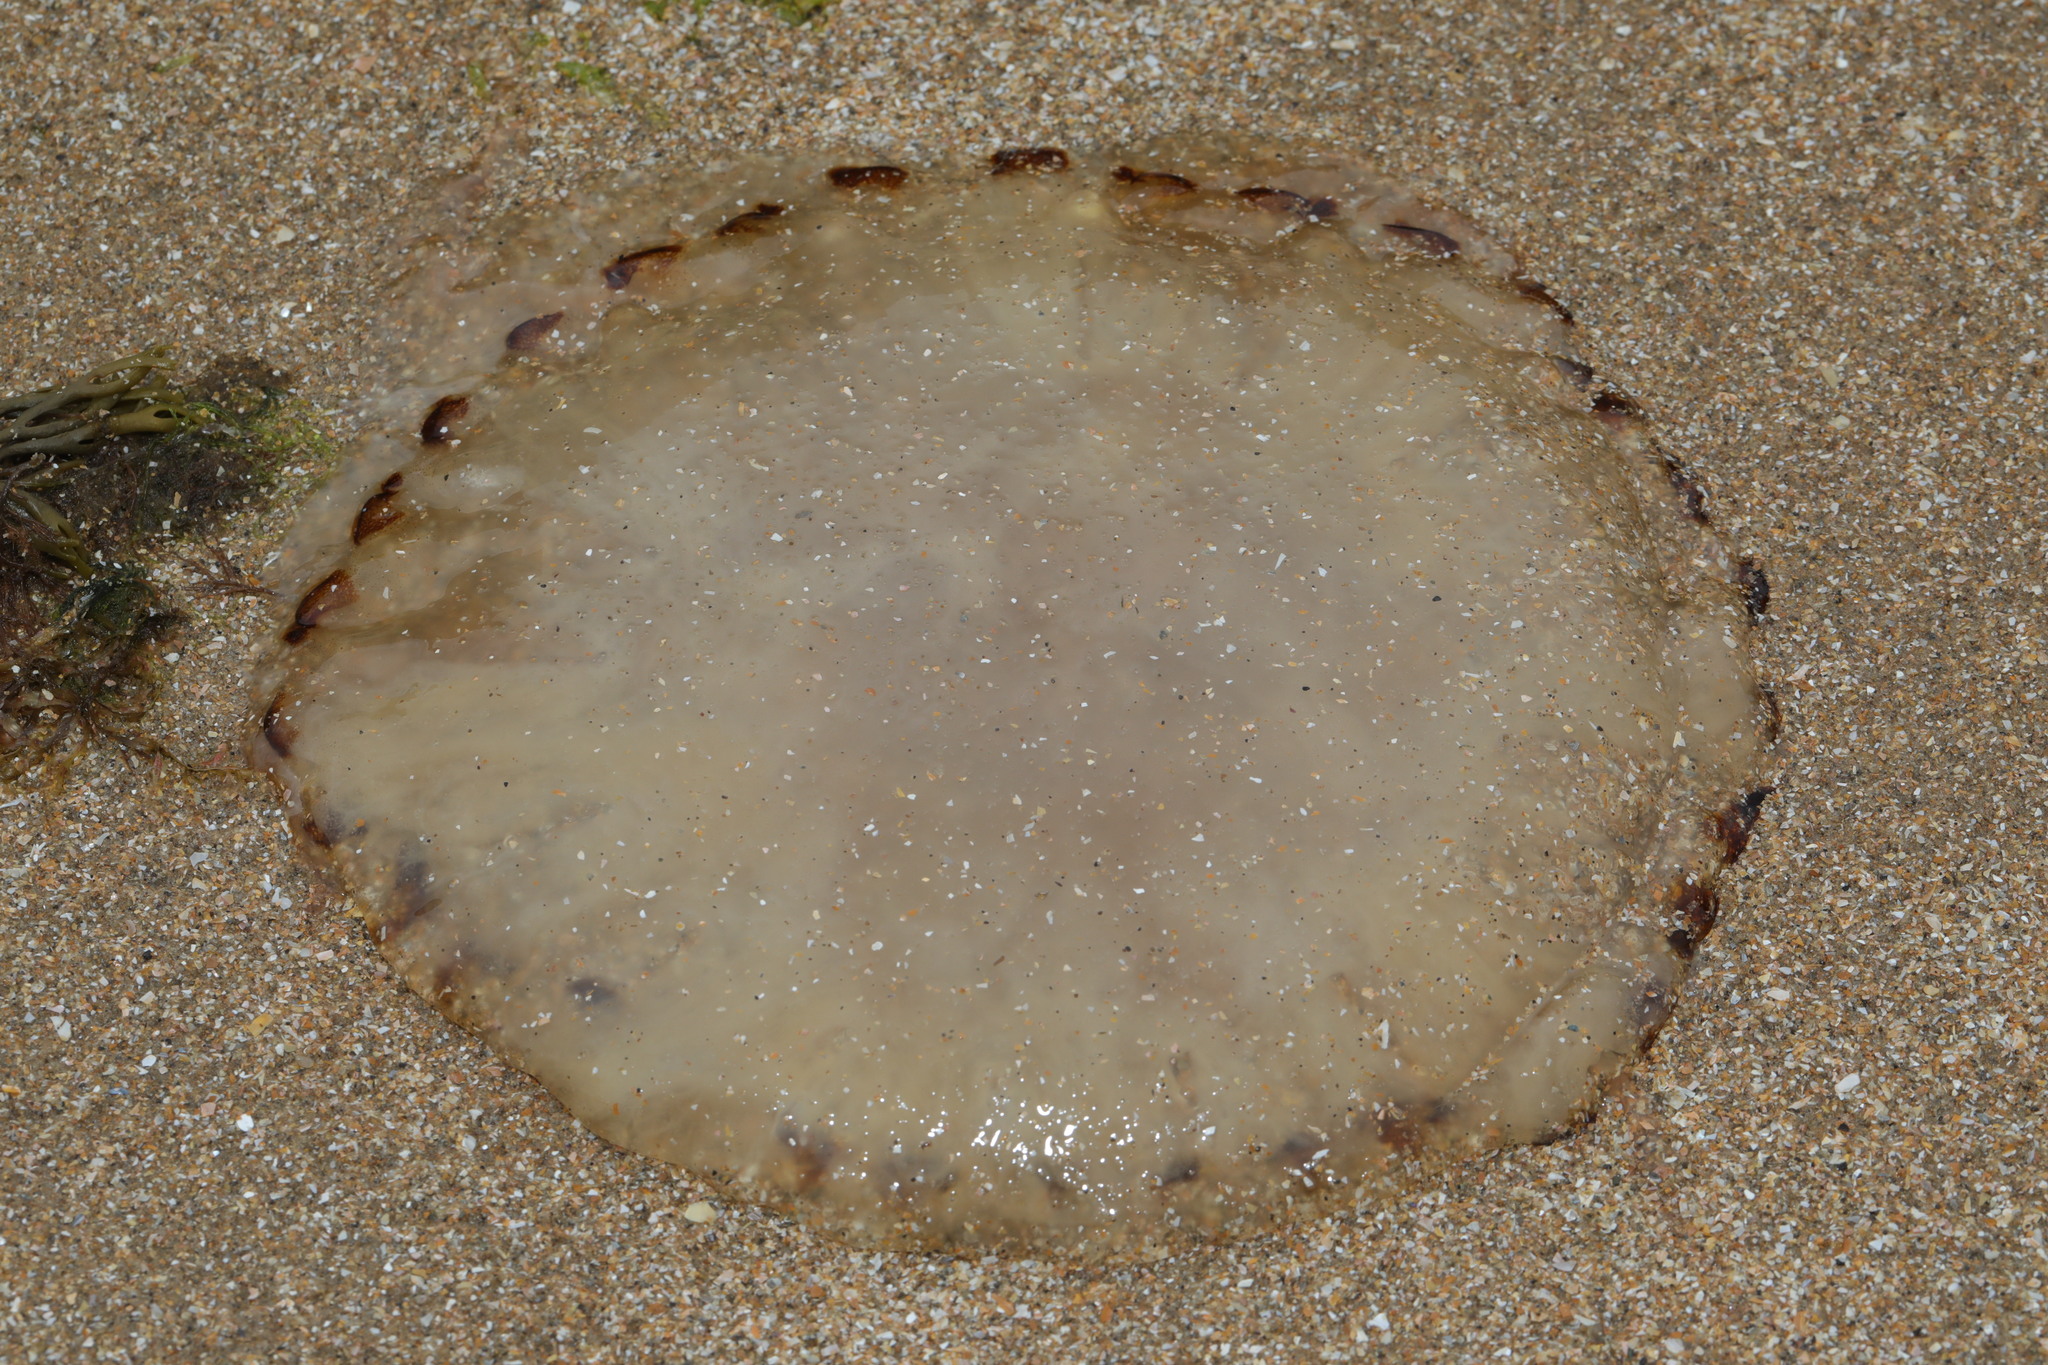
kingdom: Animalia
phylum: Cnidaria
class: Scyphozoa
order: Semaeostomeae
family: Pelagiidae
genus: Chrysaora
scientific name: Chrysaora hysoscella
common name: Compass jellyfish
